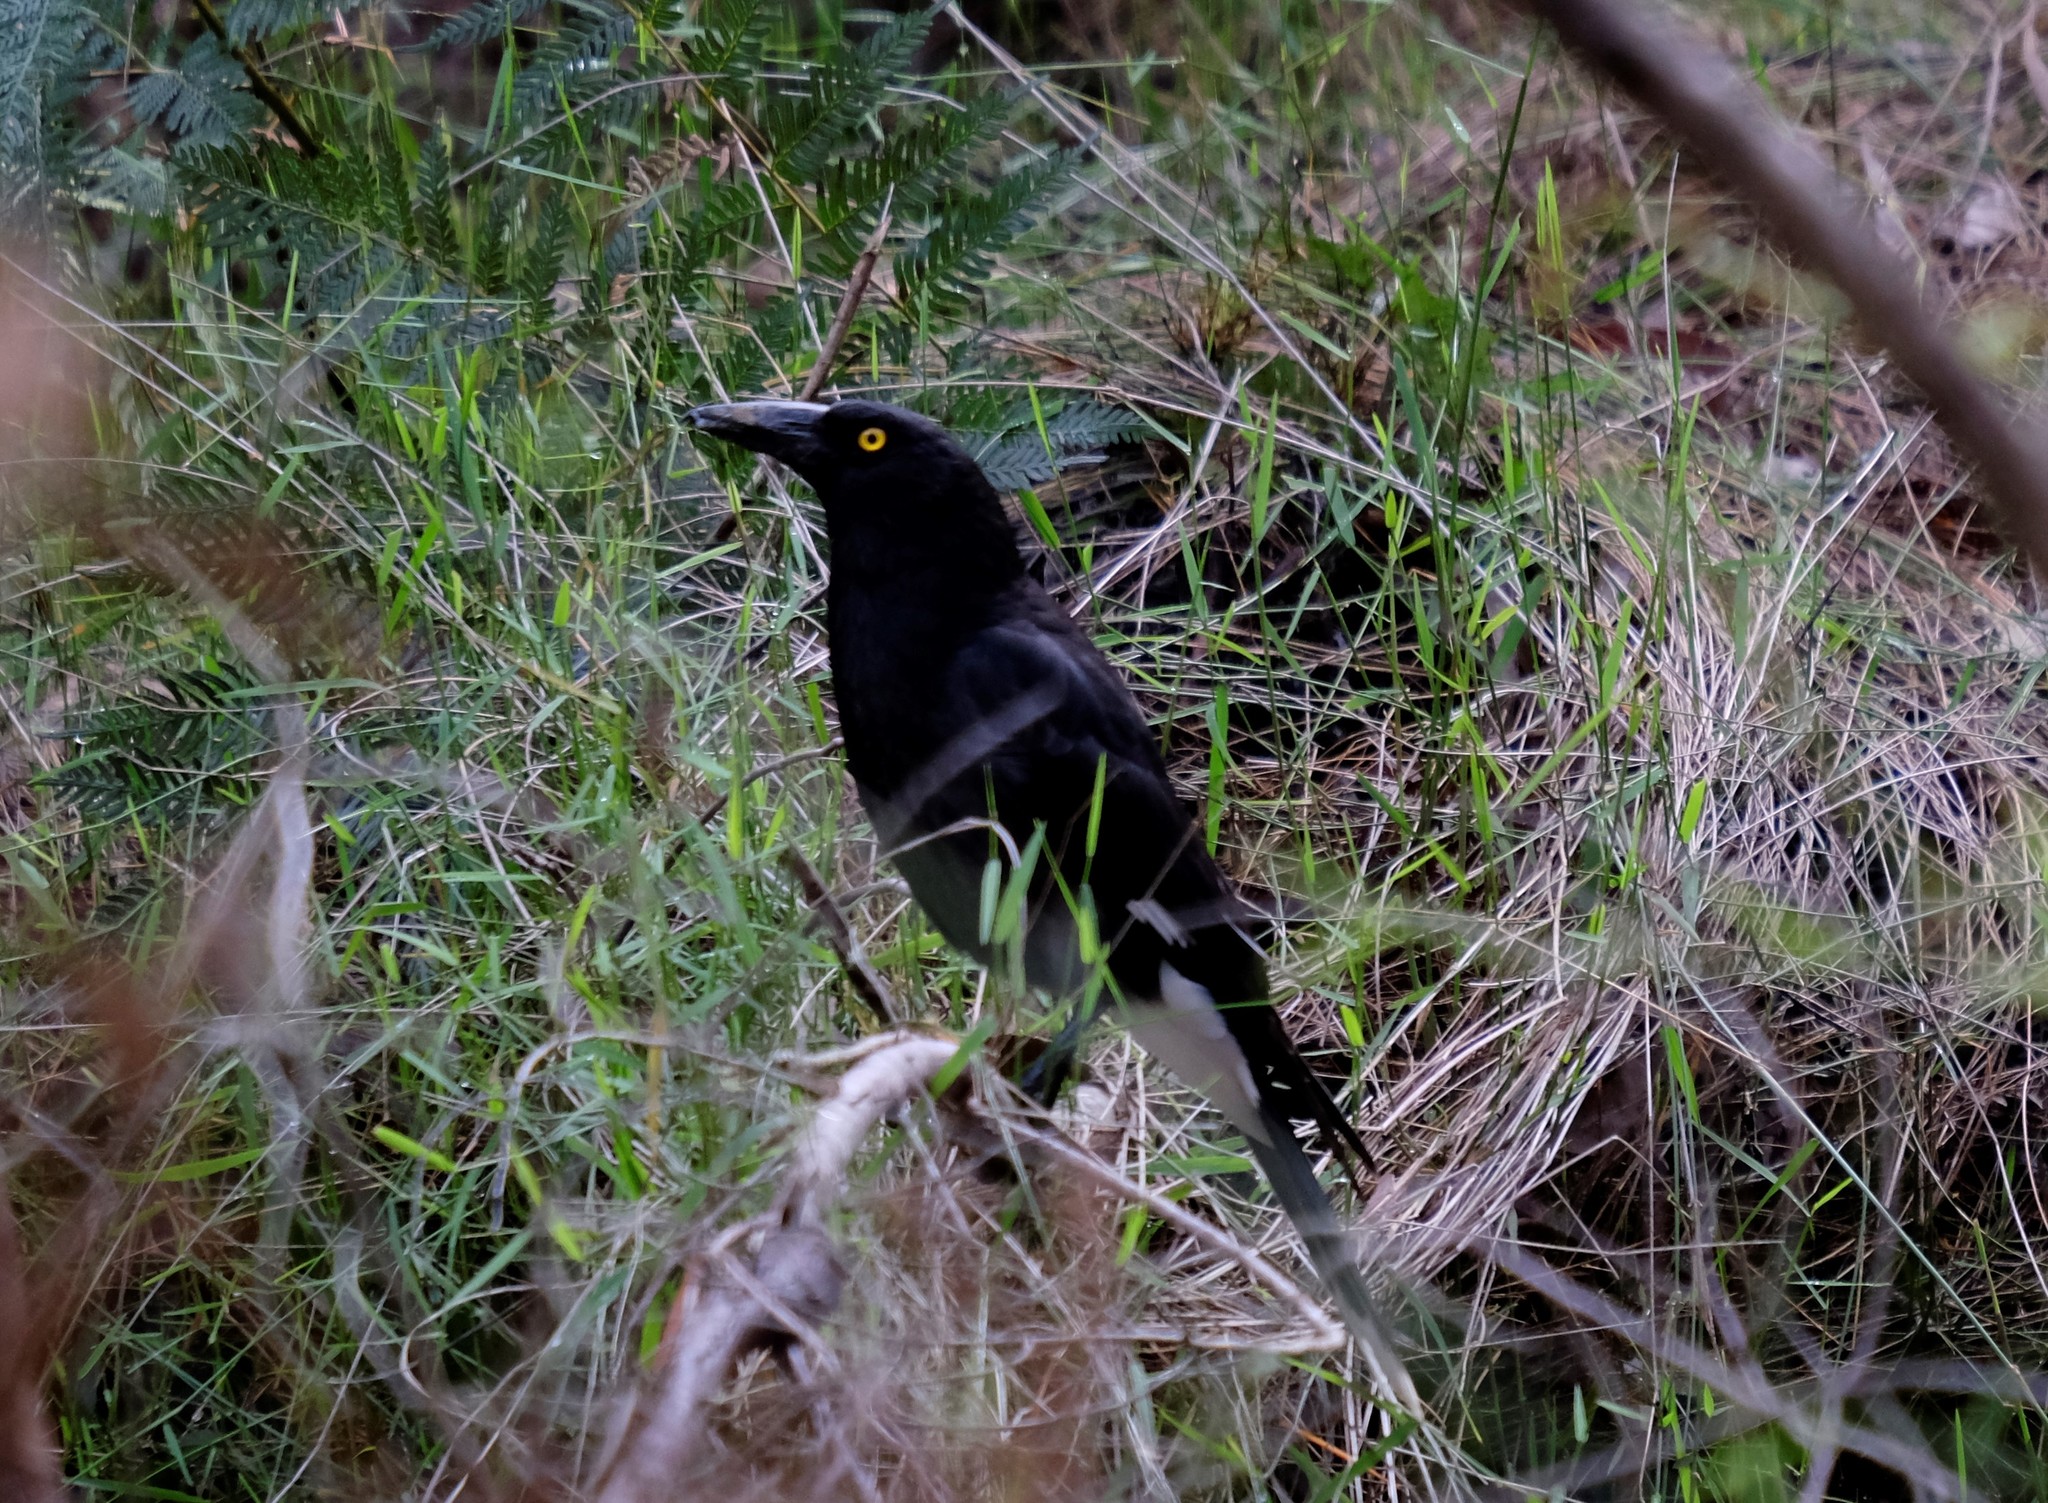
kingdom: Animalia
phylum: Chordata
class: Aves
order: Passeriformes
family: Cracticidae
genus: Strepera
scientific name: Strepera graculina
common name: Pied currawong
